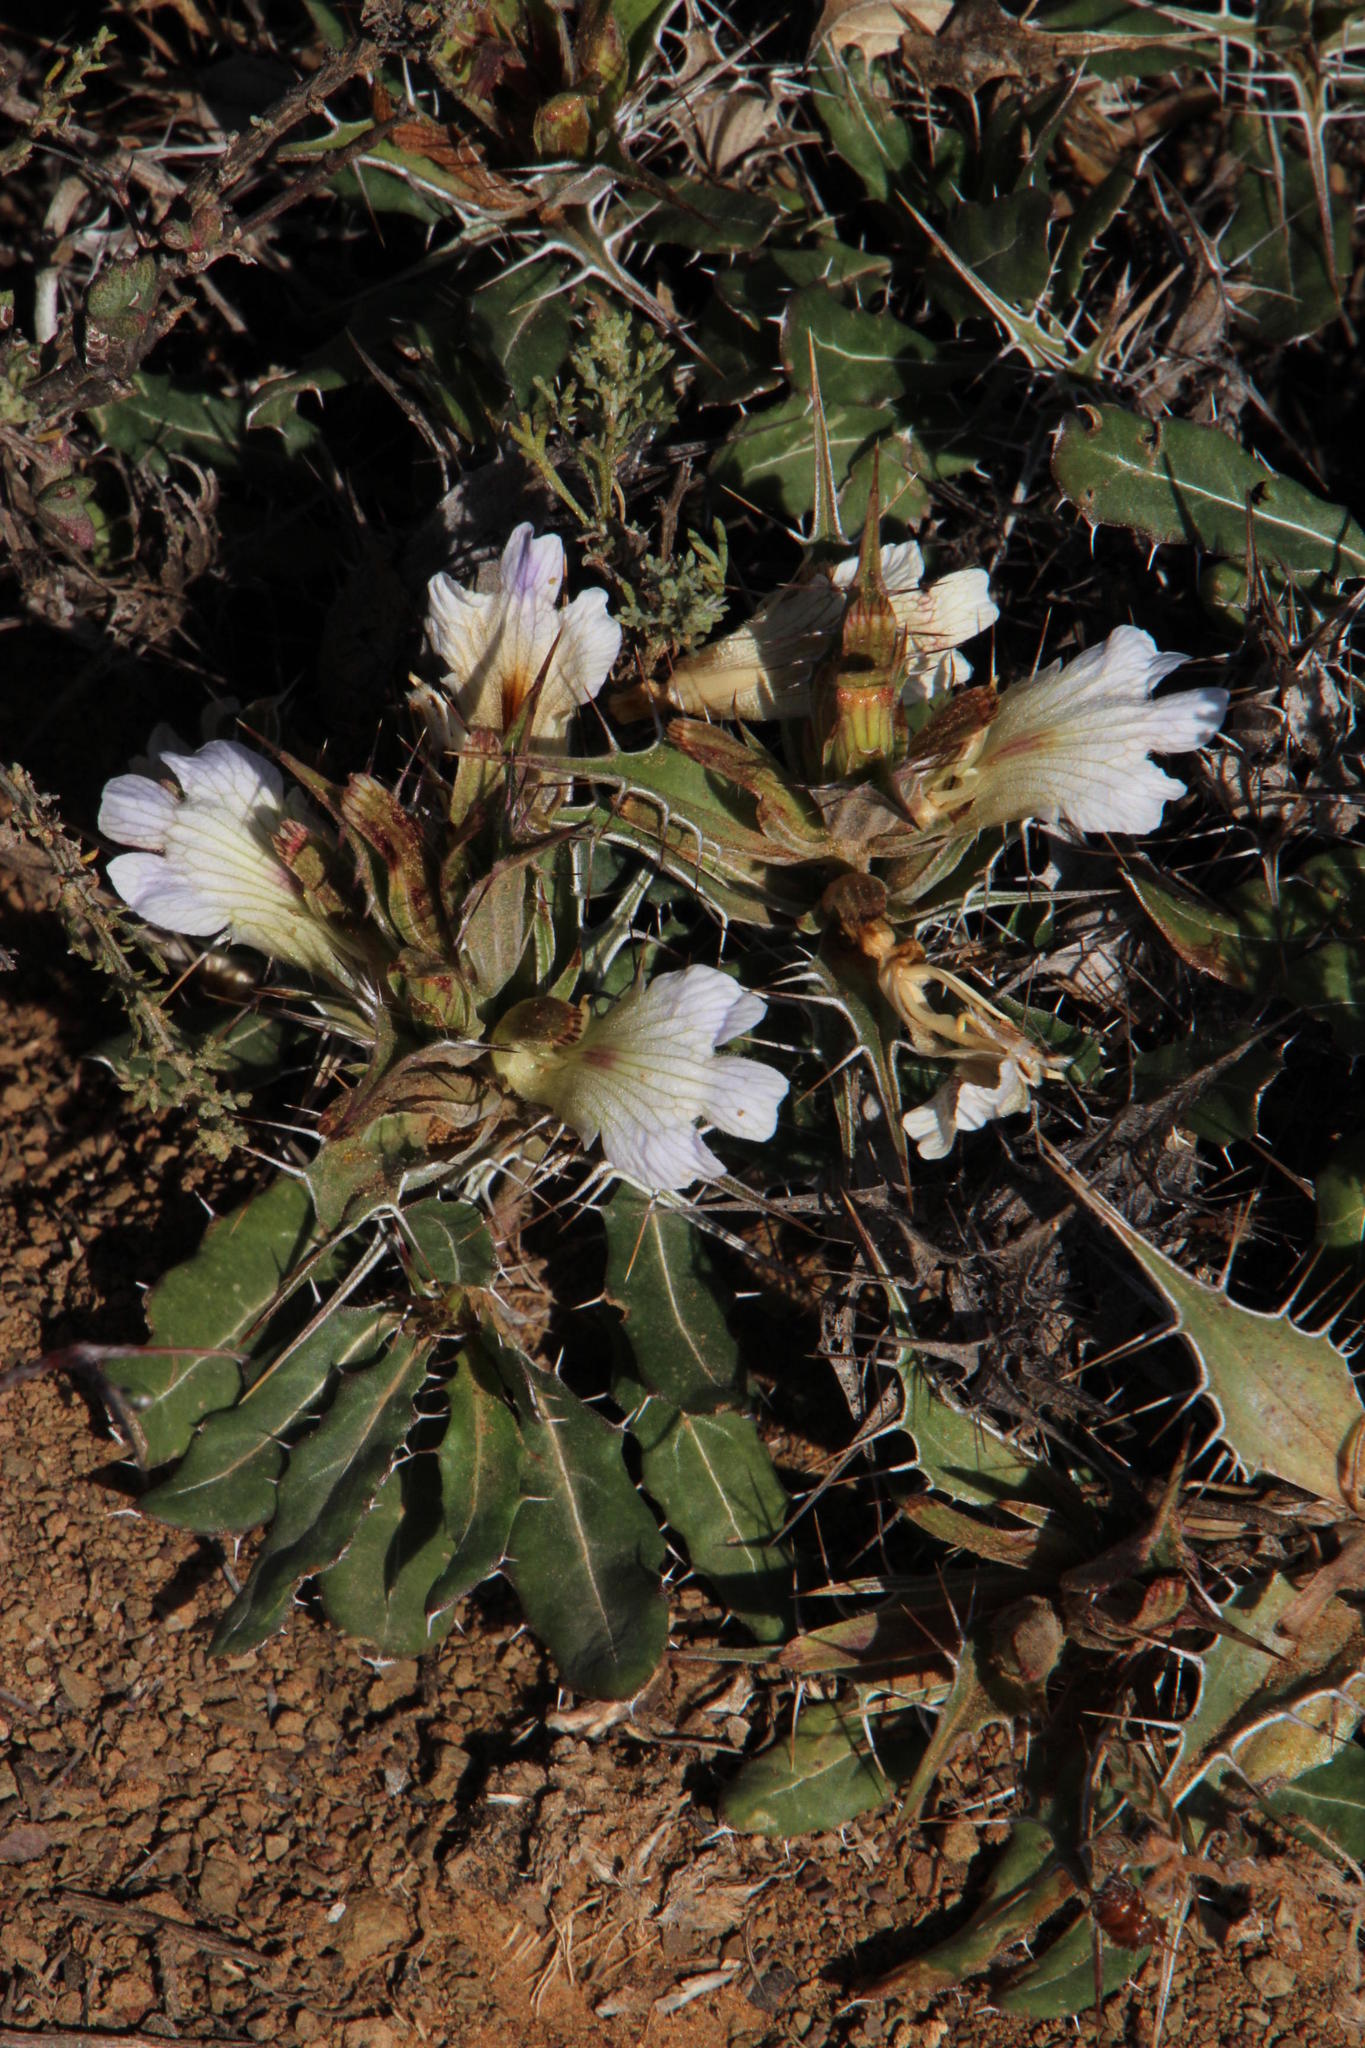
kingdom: Plantae
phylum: Tracheophyta
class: Magnoliopsida
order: Lamiales
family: Acanthaceae
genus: Blepharis
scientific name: Blepharis mitrata
